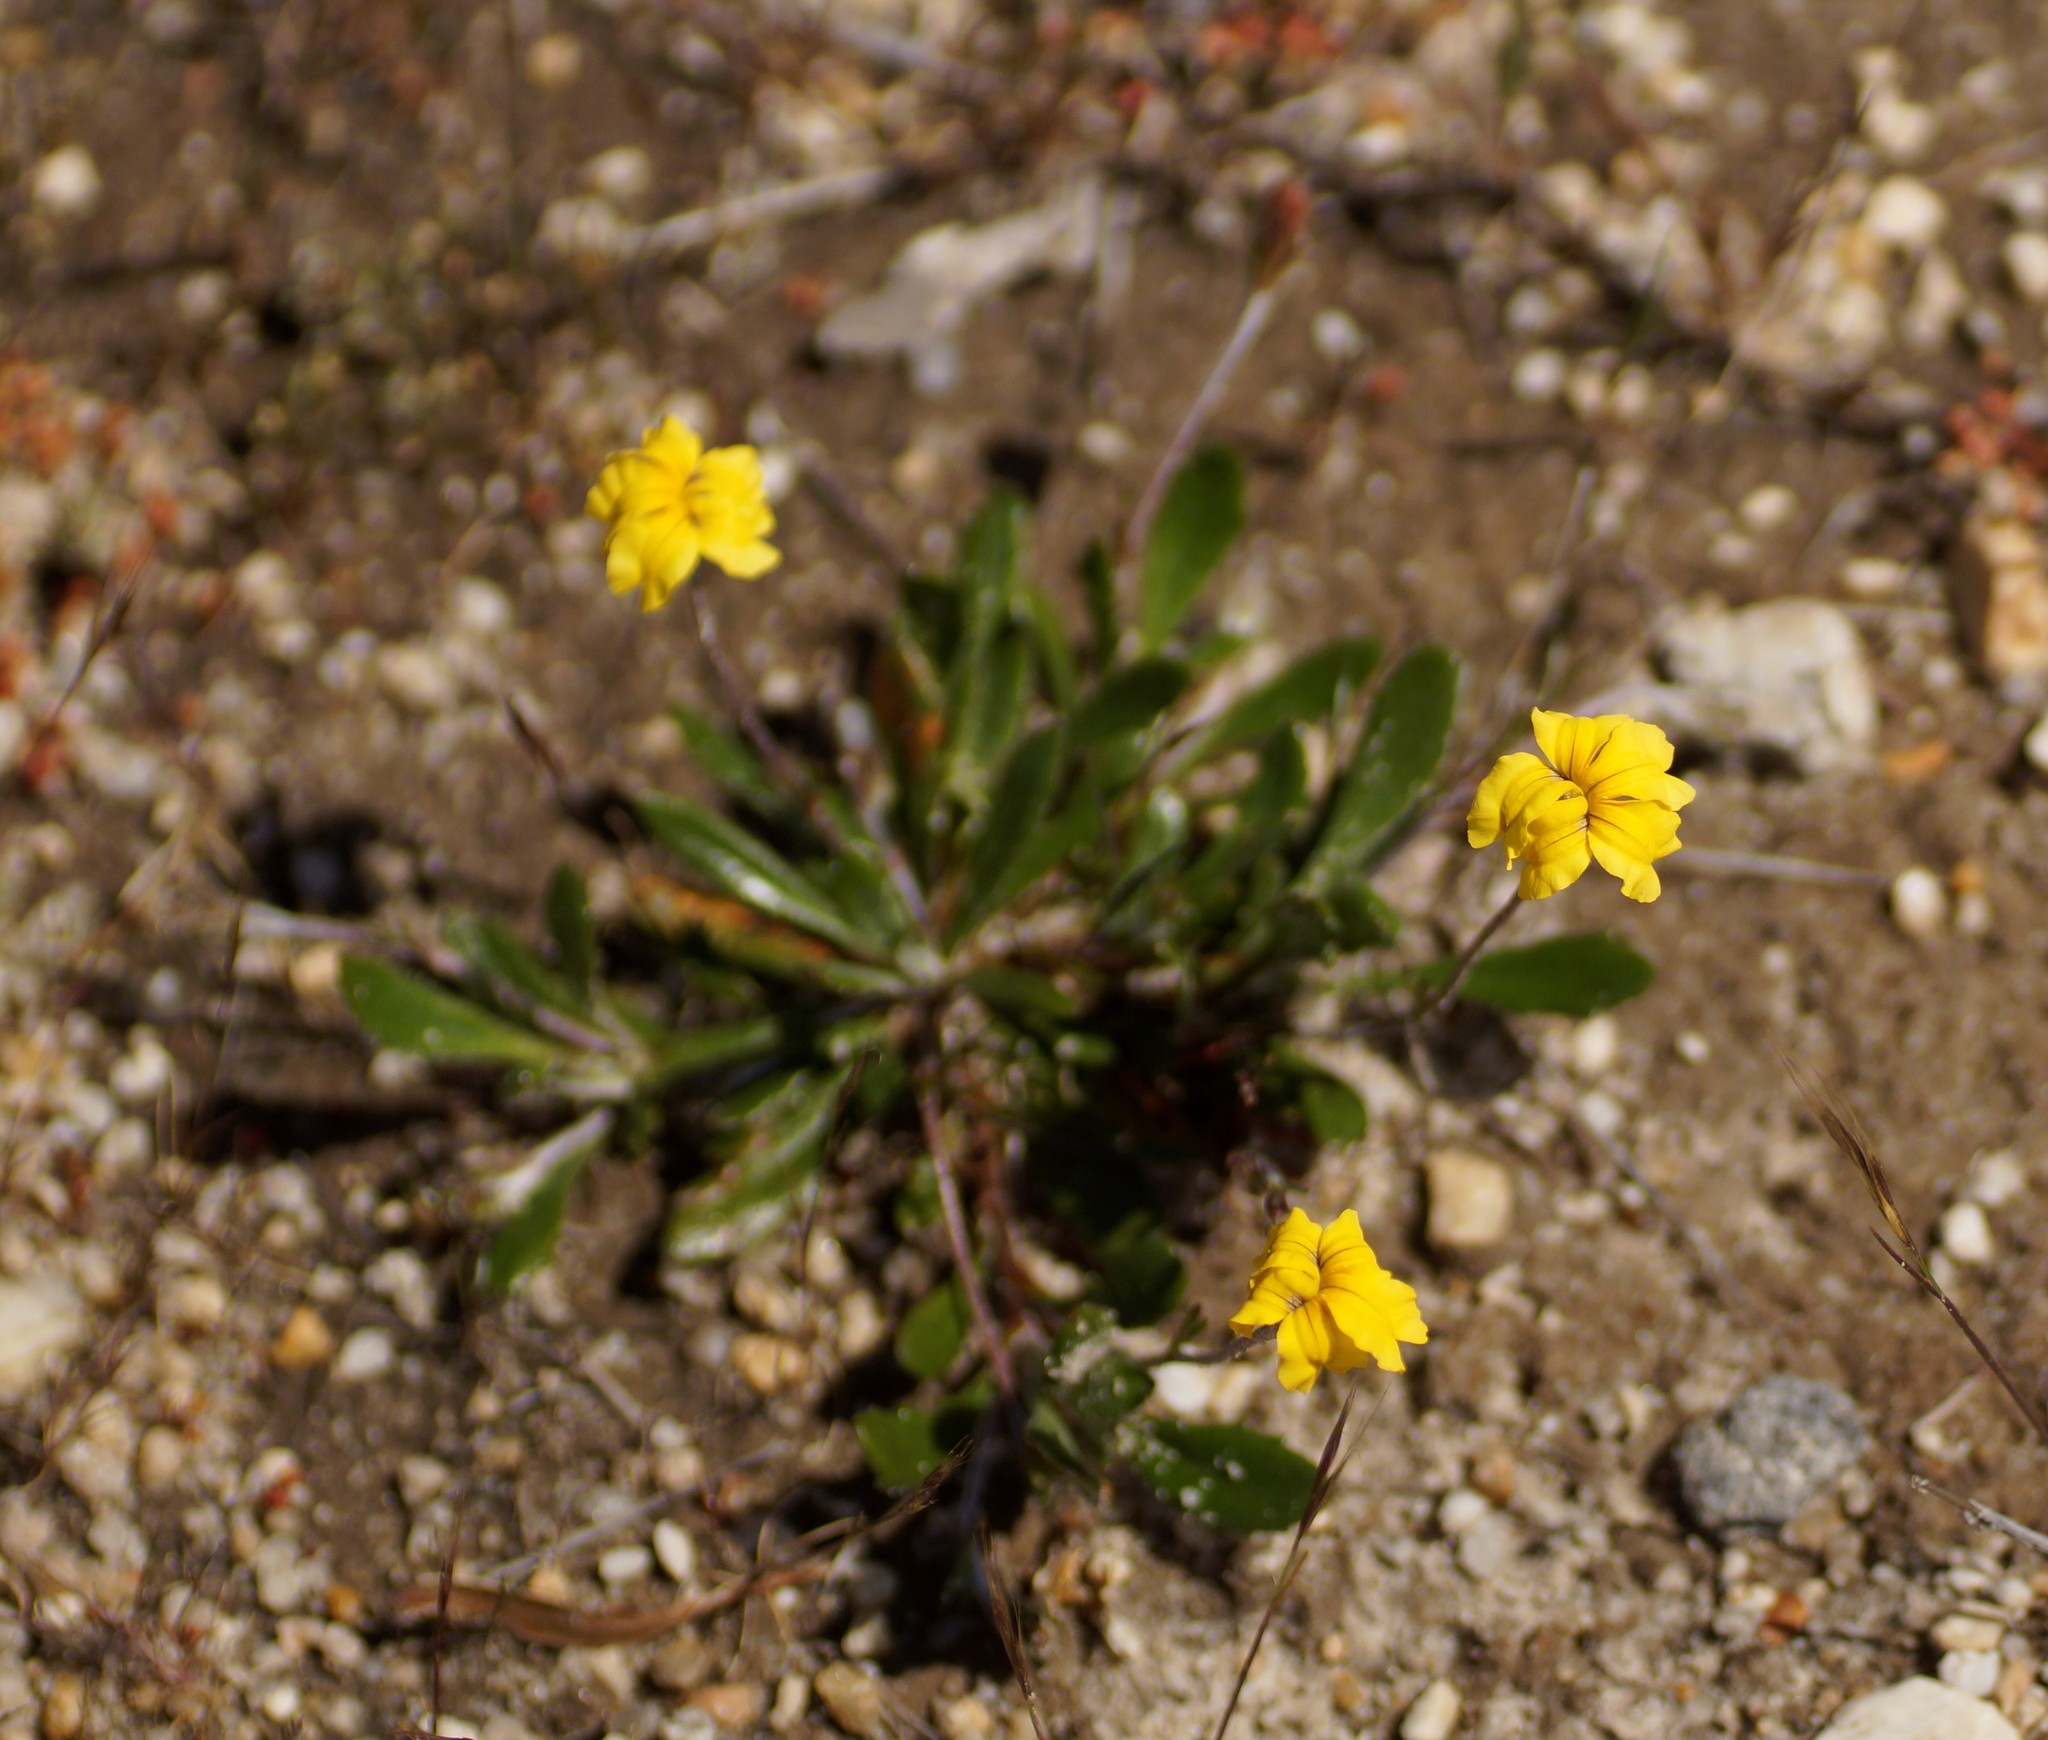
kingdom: Plantae
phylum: Tracheophyta
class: Magnoliopsida
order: Asterales
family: Goodeniaceae
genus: Goodenia
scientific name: Goodenia geniculata
